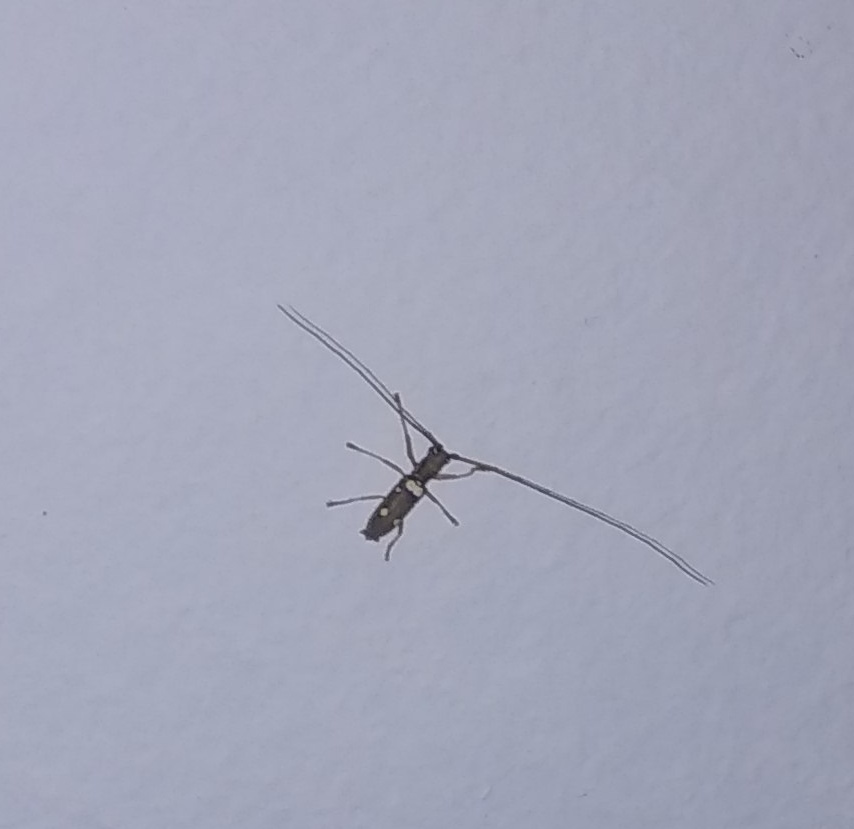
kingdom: Animalia
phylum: Arthropoda
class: Insecta
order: Coleoptera
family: Cerambycidae
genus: Olenecamptus
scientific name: Olenecamptus bilobus
